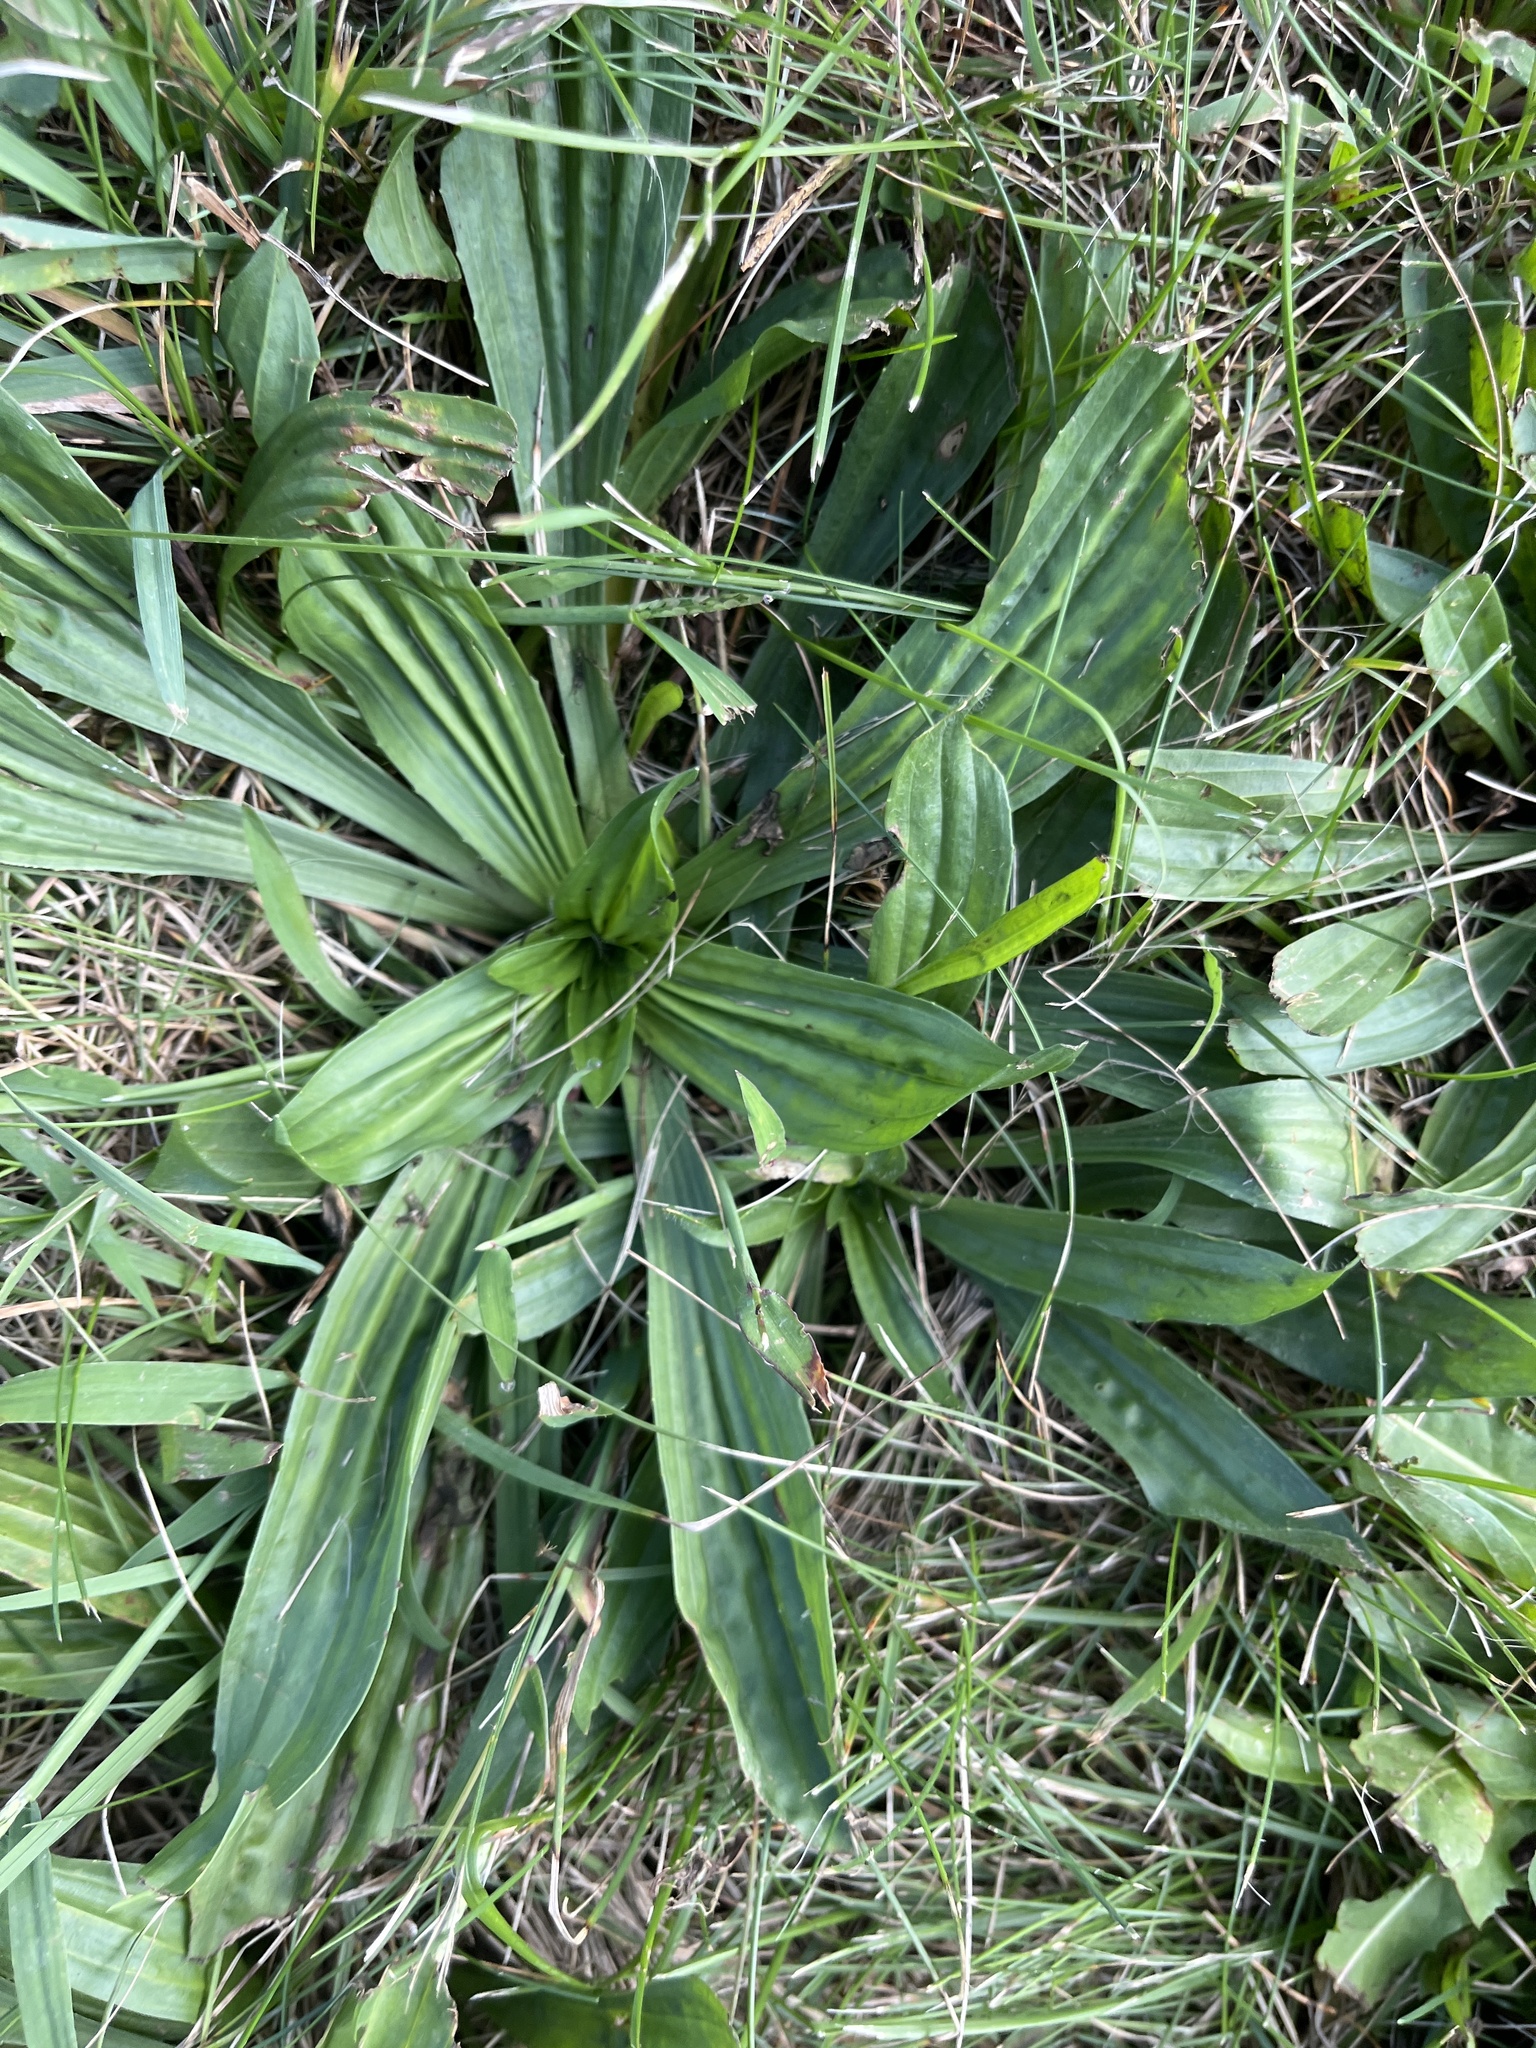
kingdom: Plantae
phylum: Tracheophyta
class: Magnoliopsida
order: Lamiales
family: Plantaginaceae
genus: Plantago
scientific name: Plantago lanceolata
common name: Ribwort plantain
